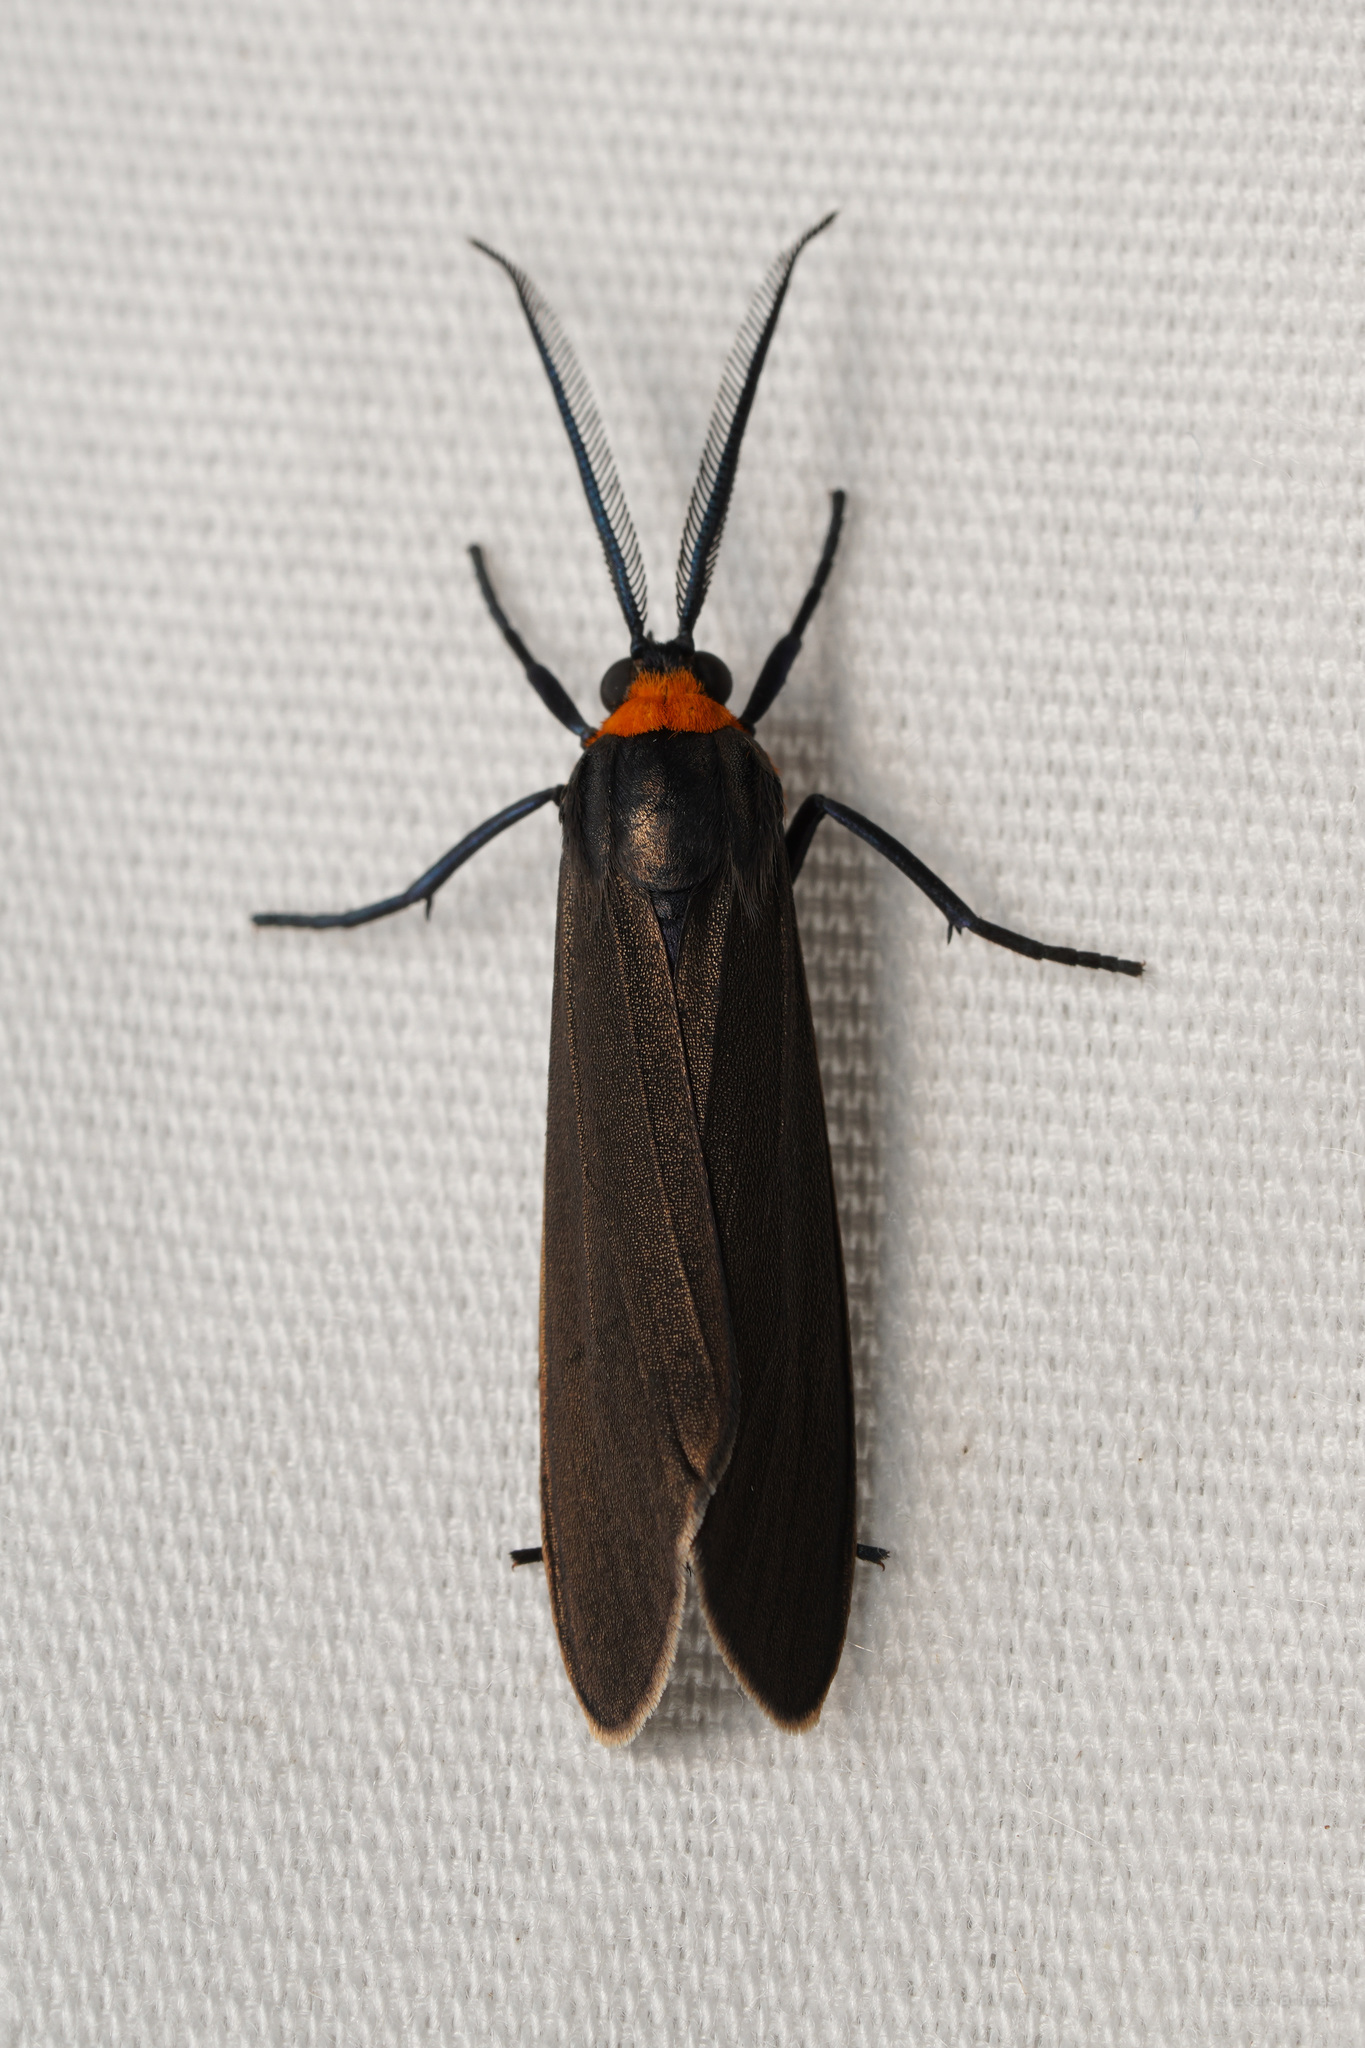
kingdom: Animalia
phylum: Arthropoda
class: Insecta
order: Lepidoptera
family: Erebidae
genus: Cisseps
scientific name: Cisseps fulvicollis
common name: Yellow-collared scape moth
